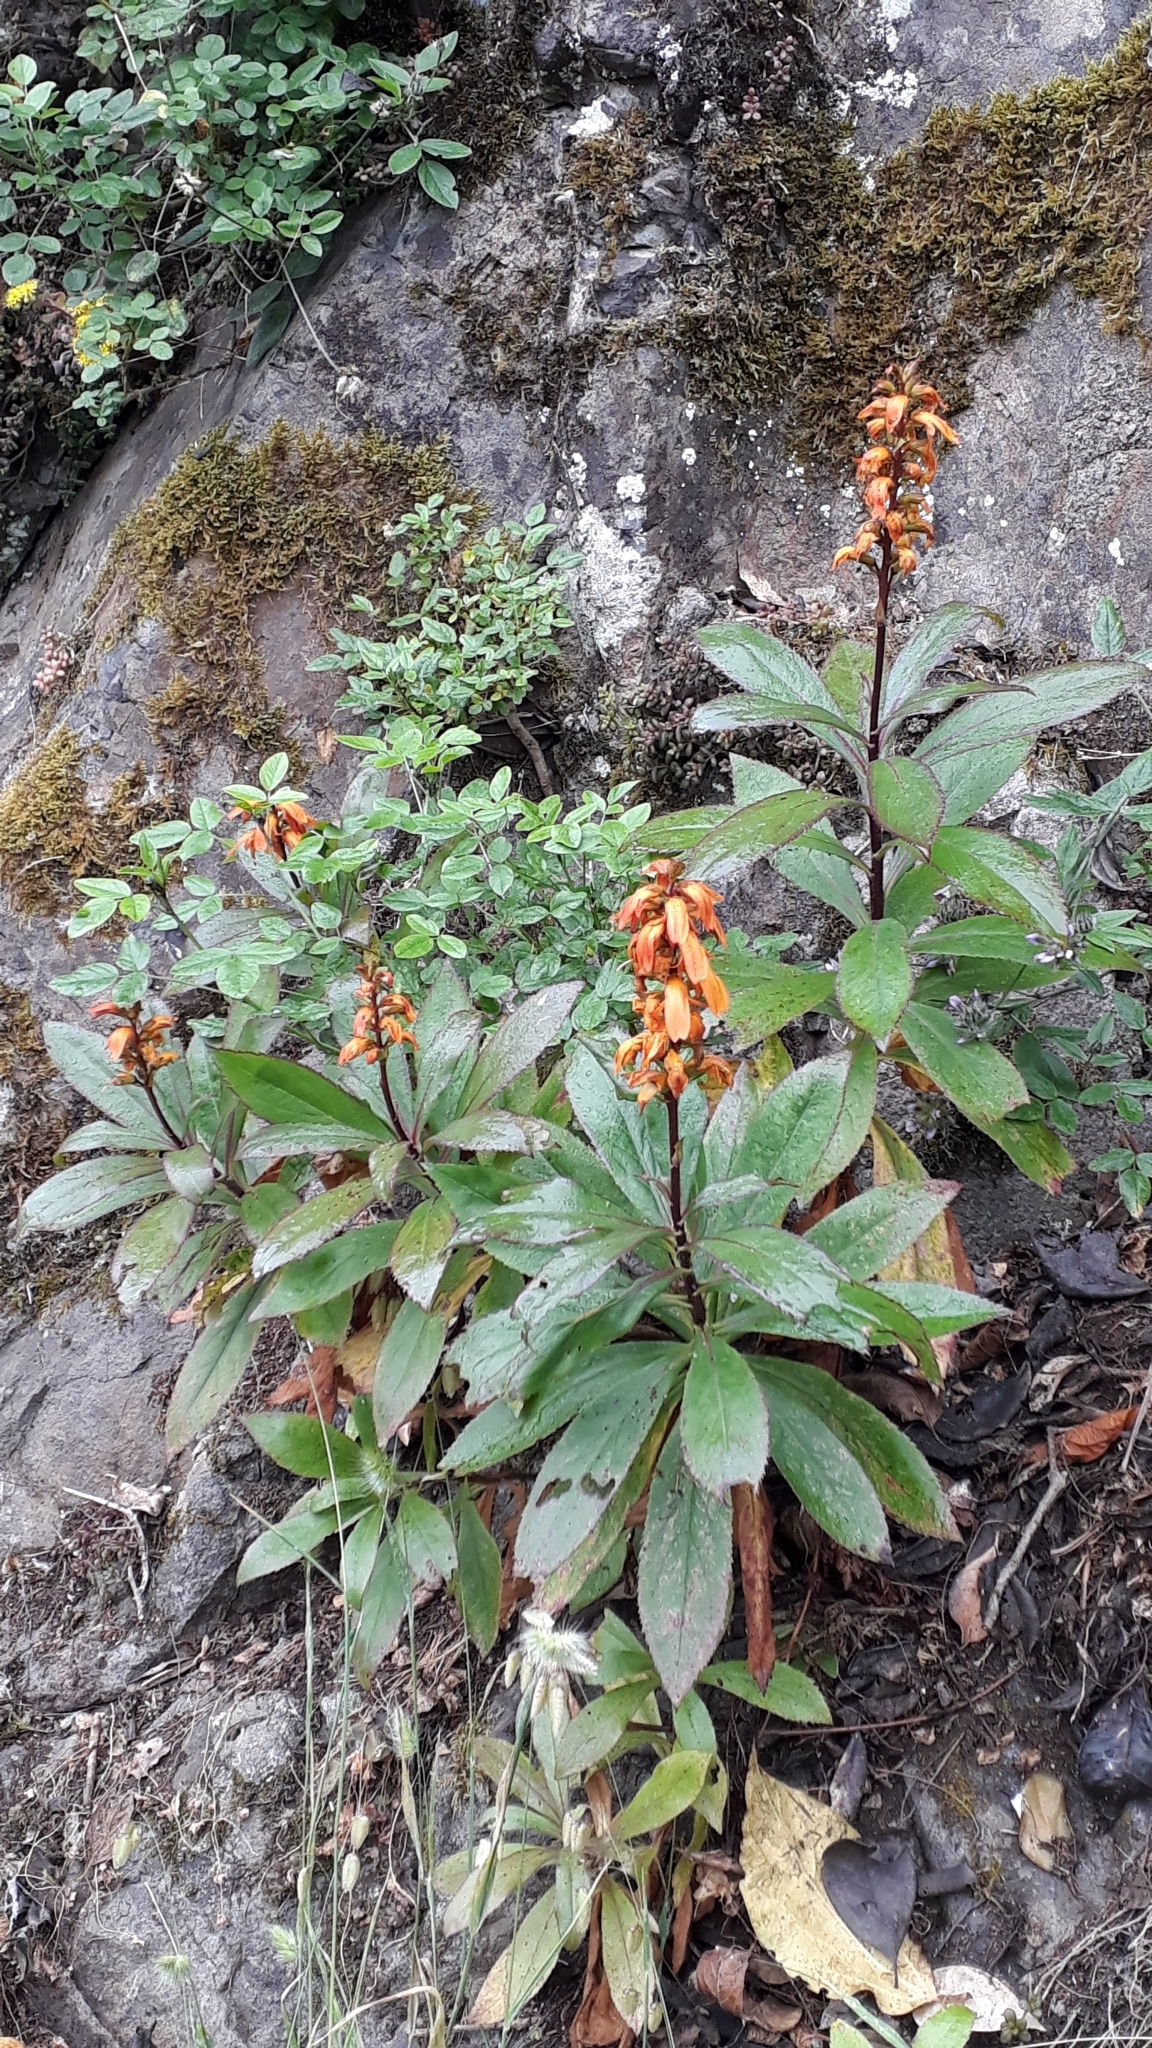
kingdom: Plantae
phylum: Tracheophyta
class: Magnoliopsida
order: Lamiales
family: Plantaginaceae
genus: Digitalis
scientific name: Digitalis canariensis
